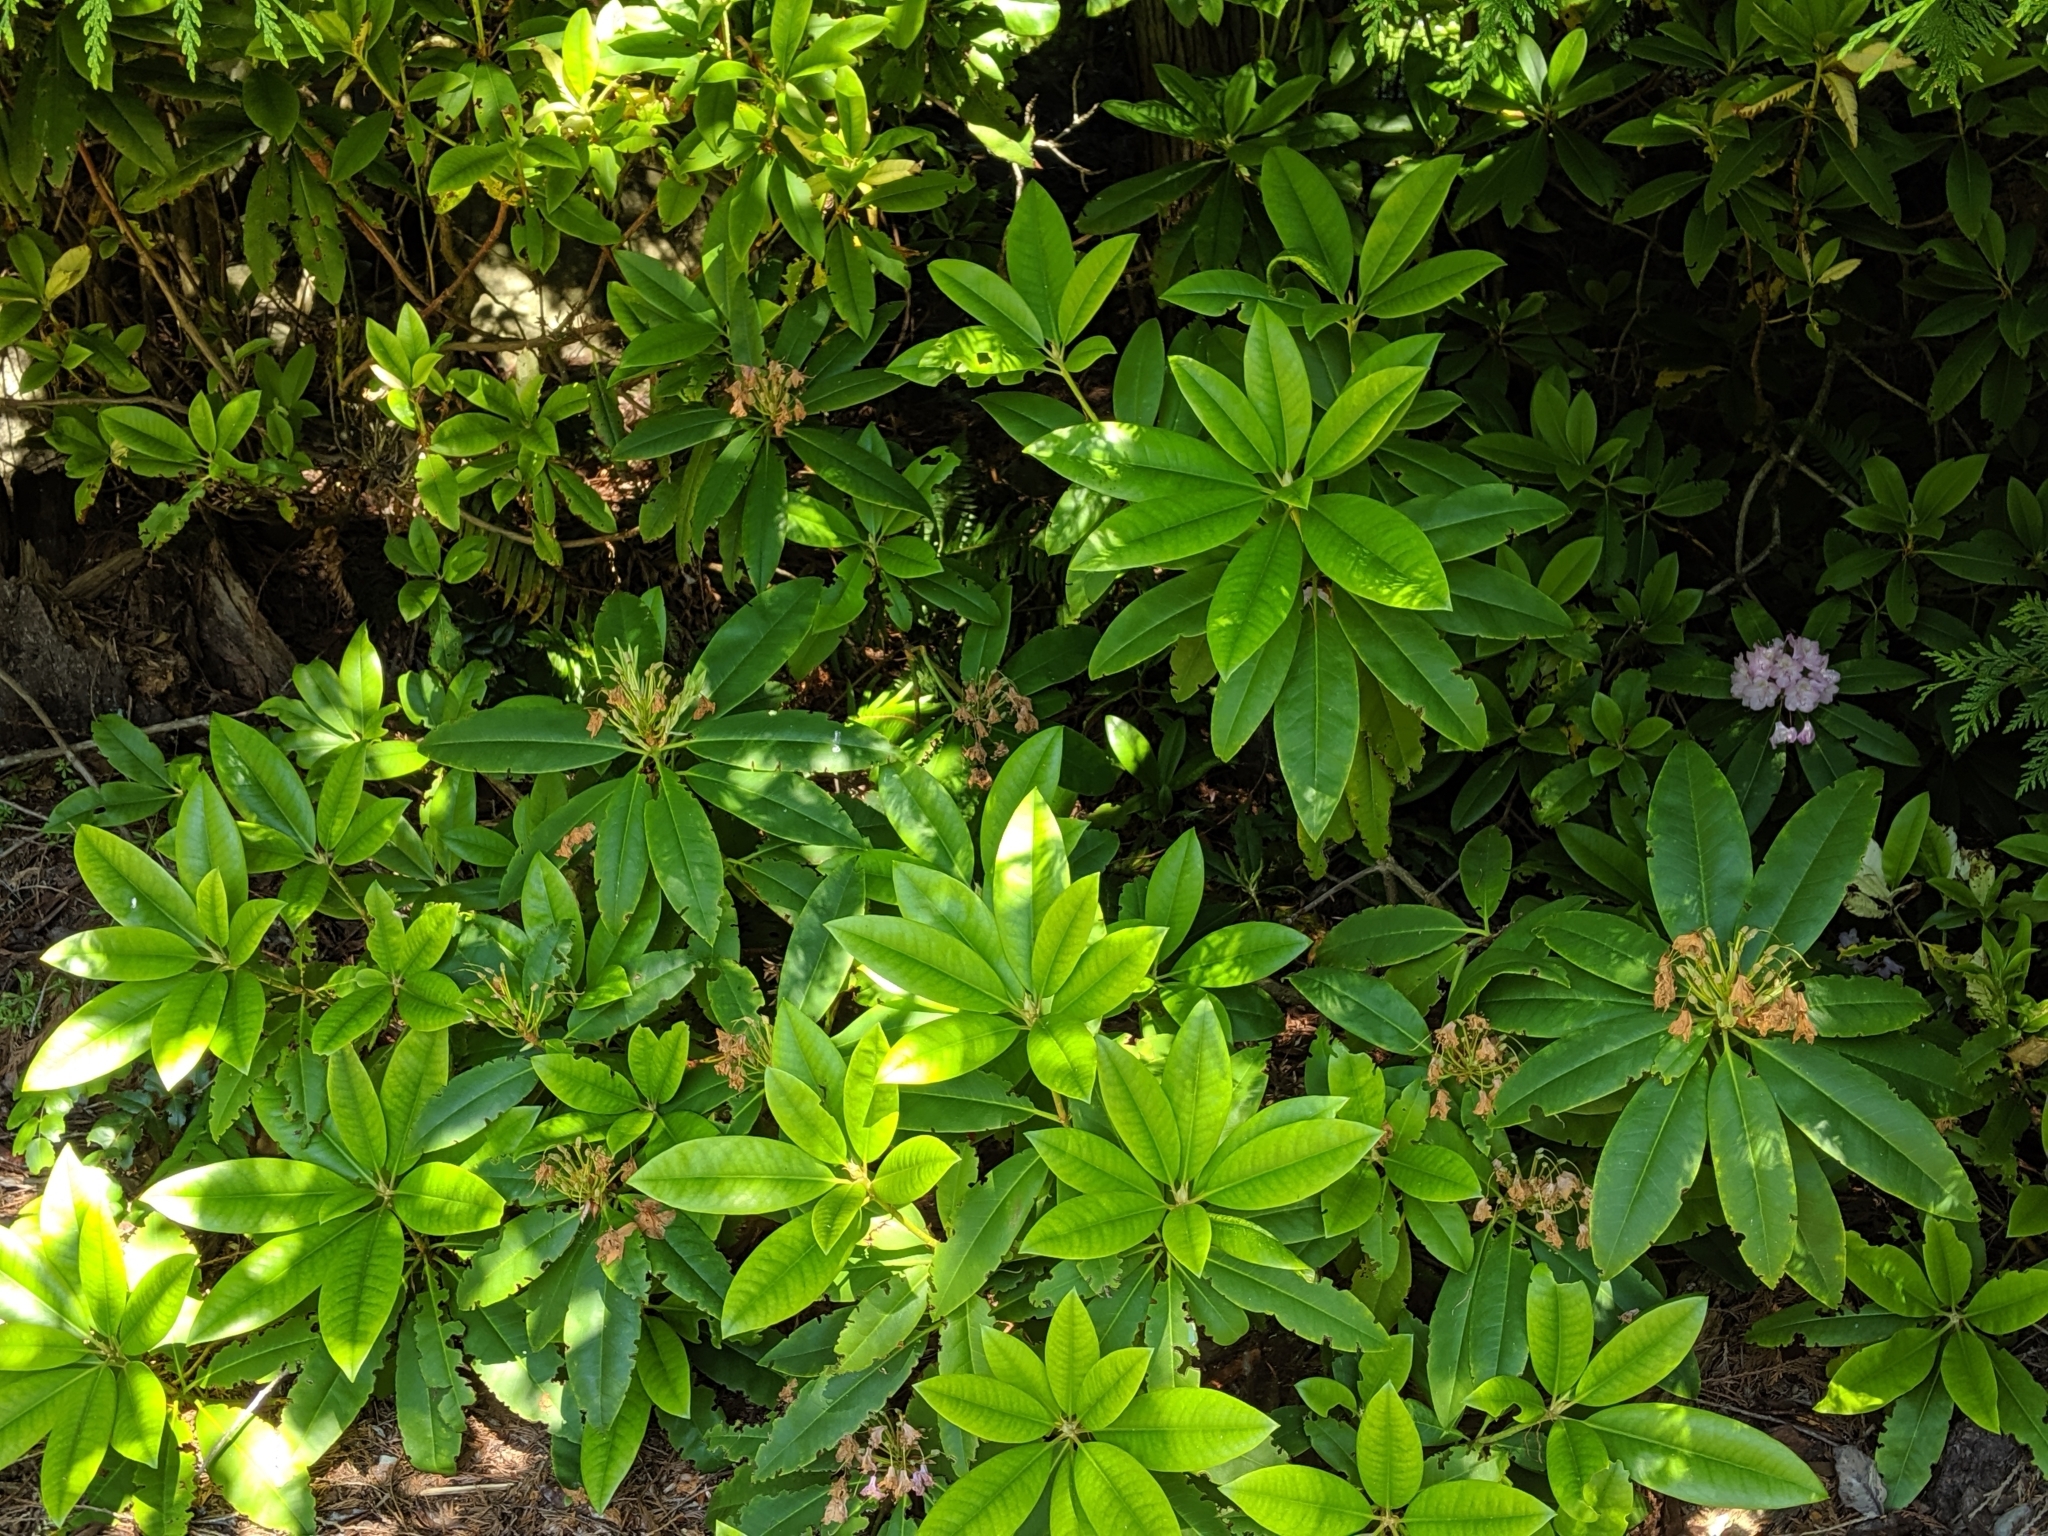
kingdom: Plantae
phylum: Tracheophyta
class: Magnoliopsida
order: Ericales
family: Ericaceae
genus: Rhododendron
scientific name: Rhododendron macrophyllum
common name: California rose bay
